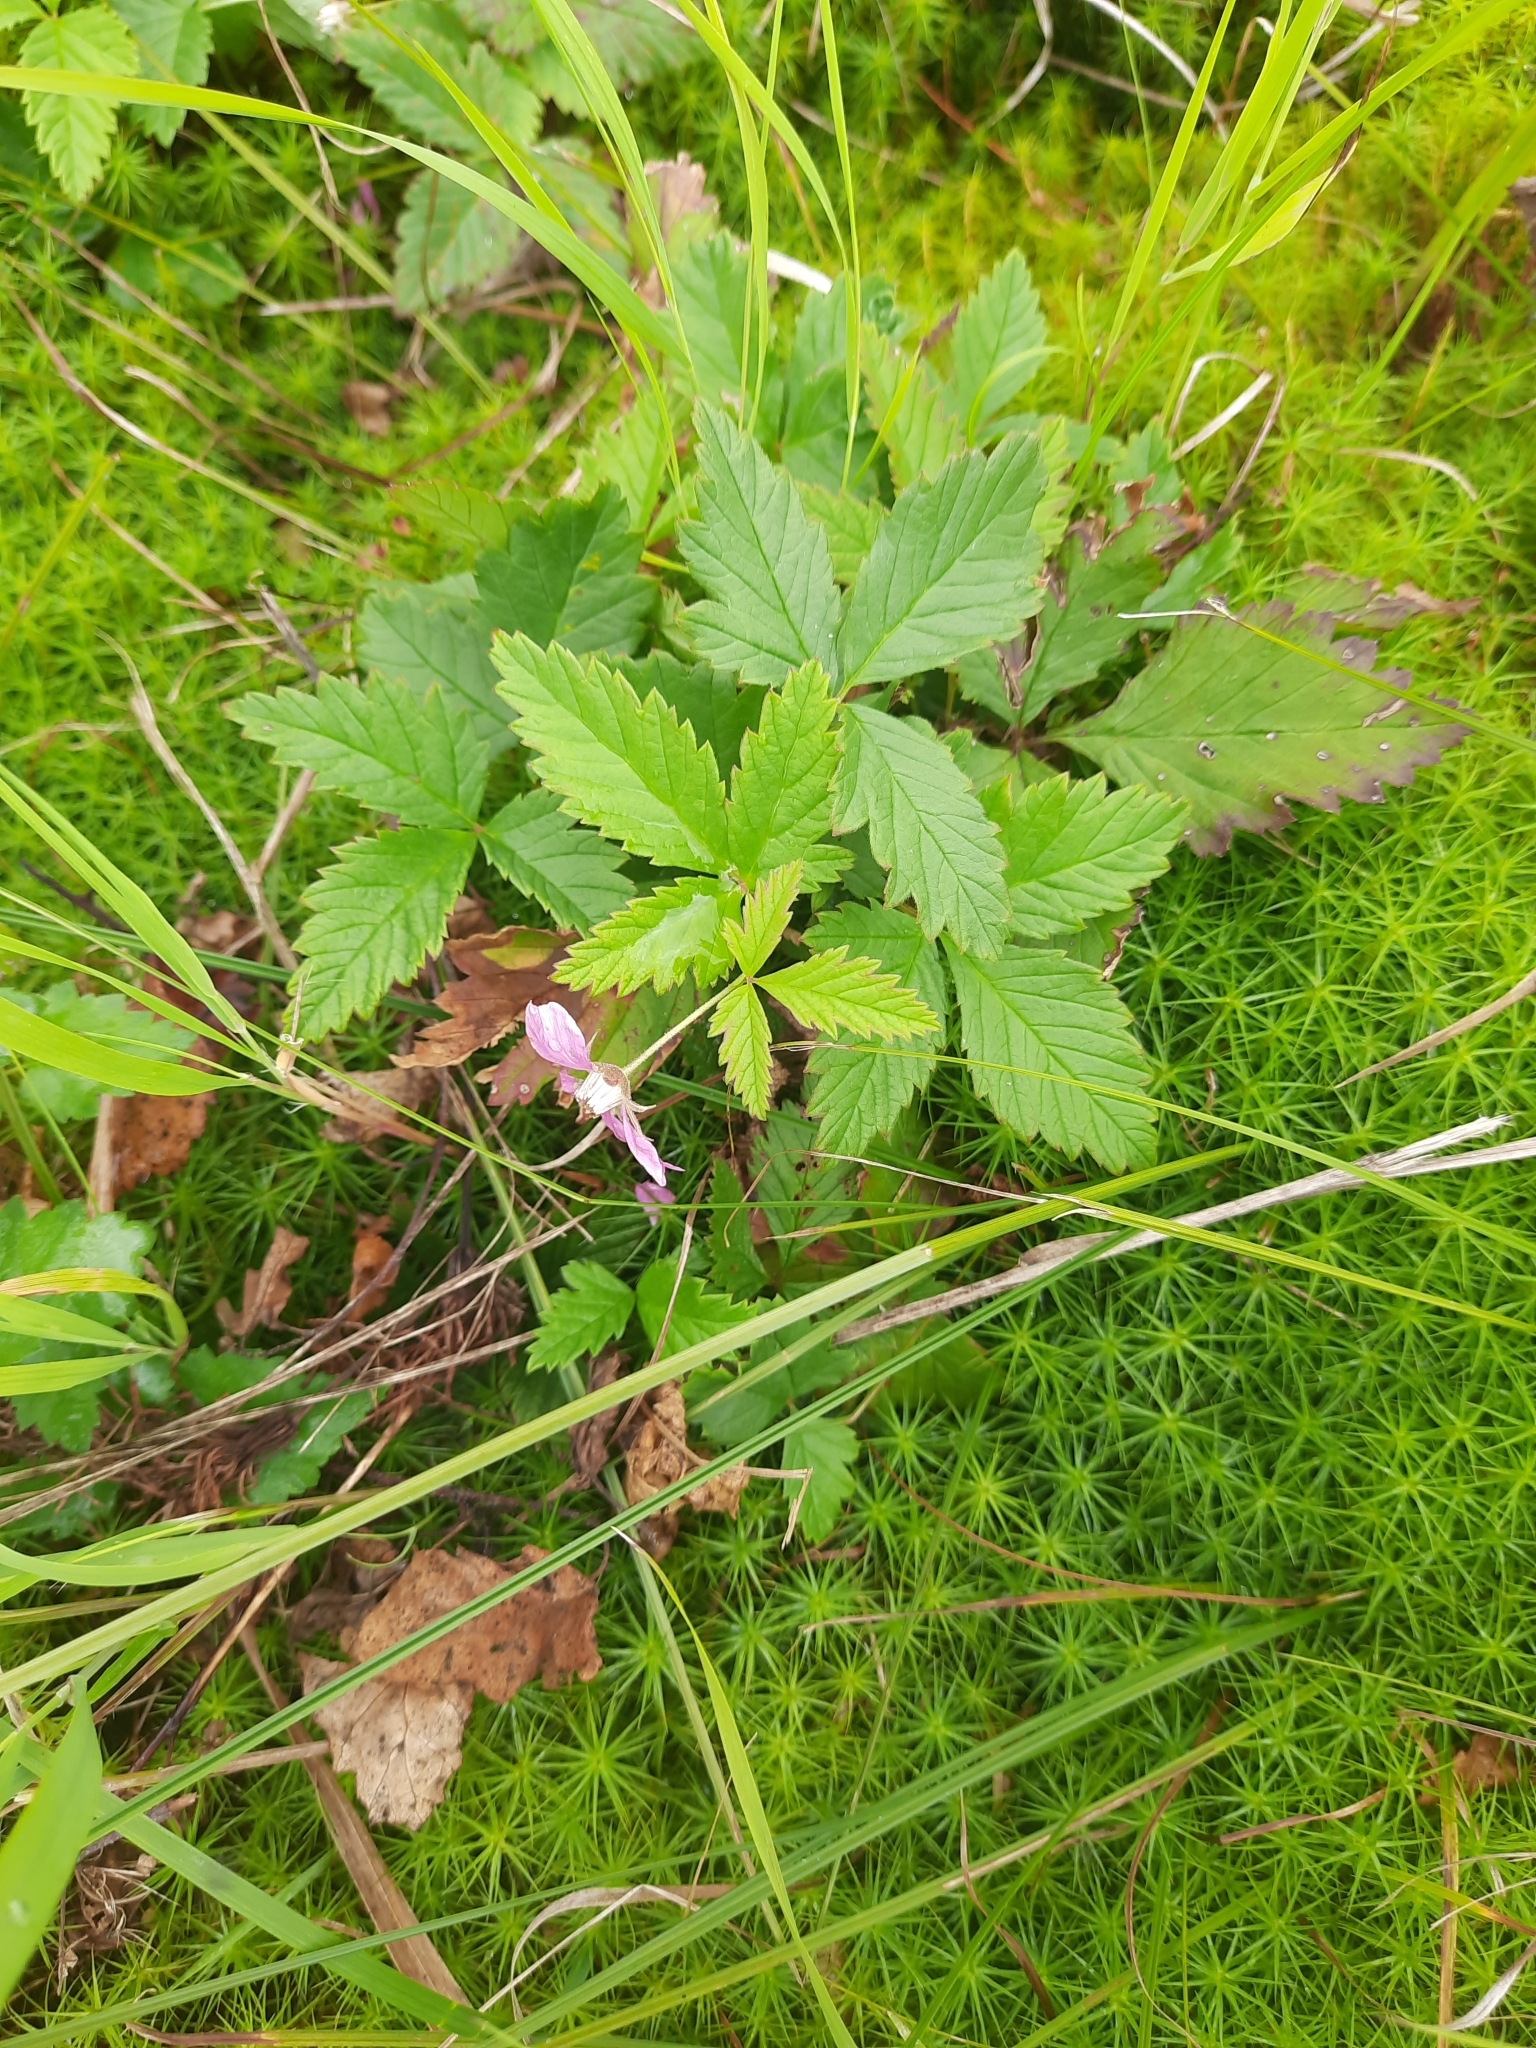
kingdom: Plantae
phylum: Tracheophyta
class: Magnoliopsida
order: Rosales
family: Rosaceae
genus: Rubus
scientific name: Rubus arcticus
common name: Arctic bramble
